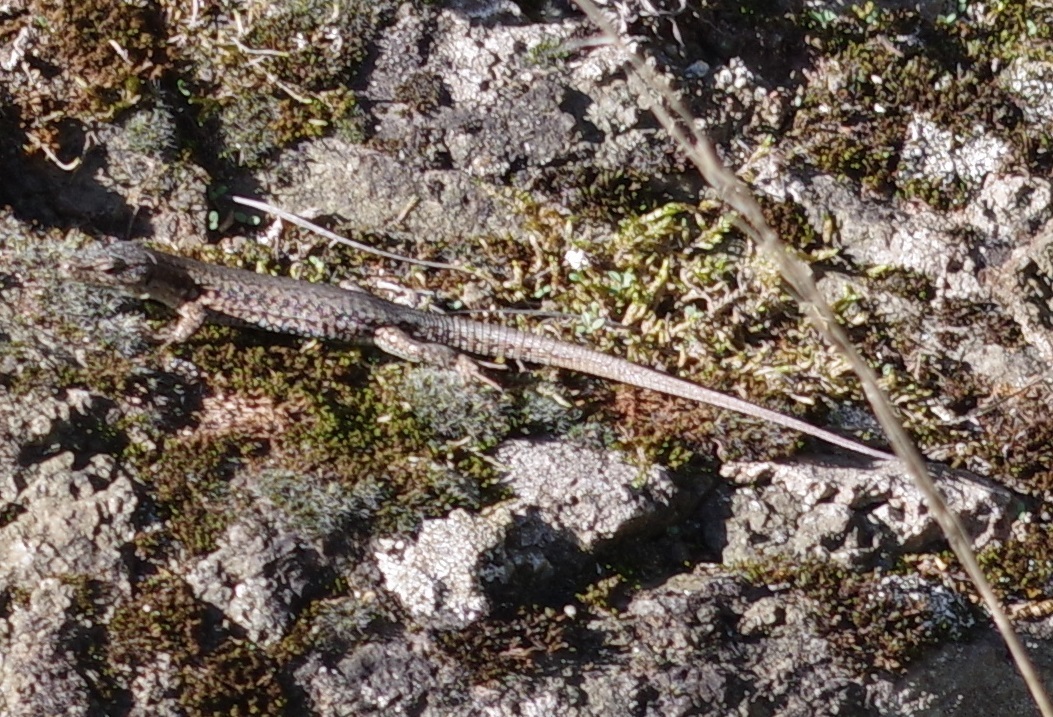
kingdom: Animalia
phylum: Chordata
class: Squamata
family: Lacertidae
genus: Podarcis
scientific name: Podarcis muralis
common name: Common wall lizard
